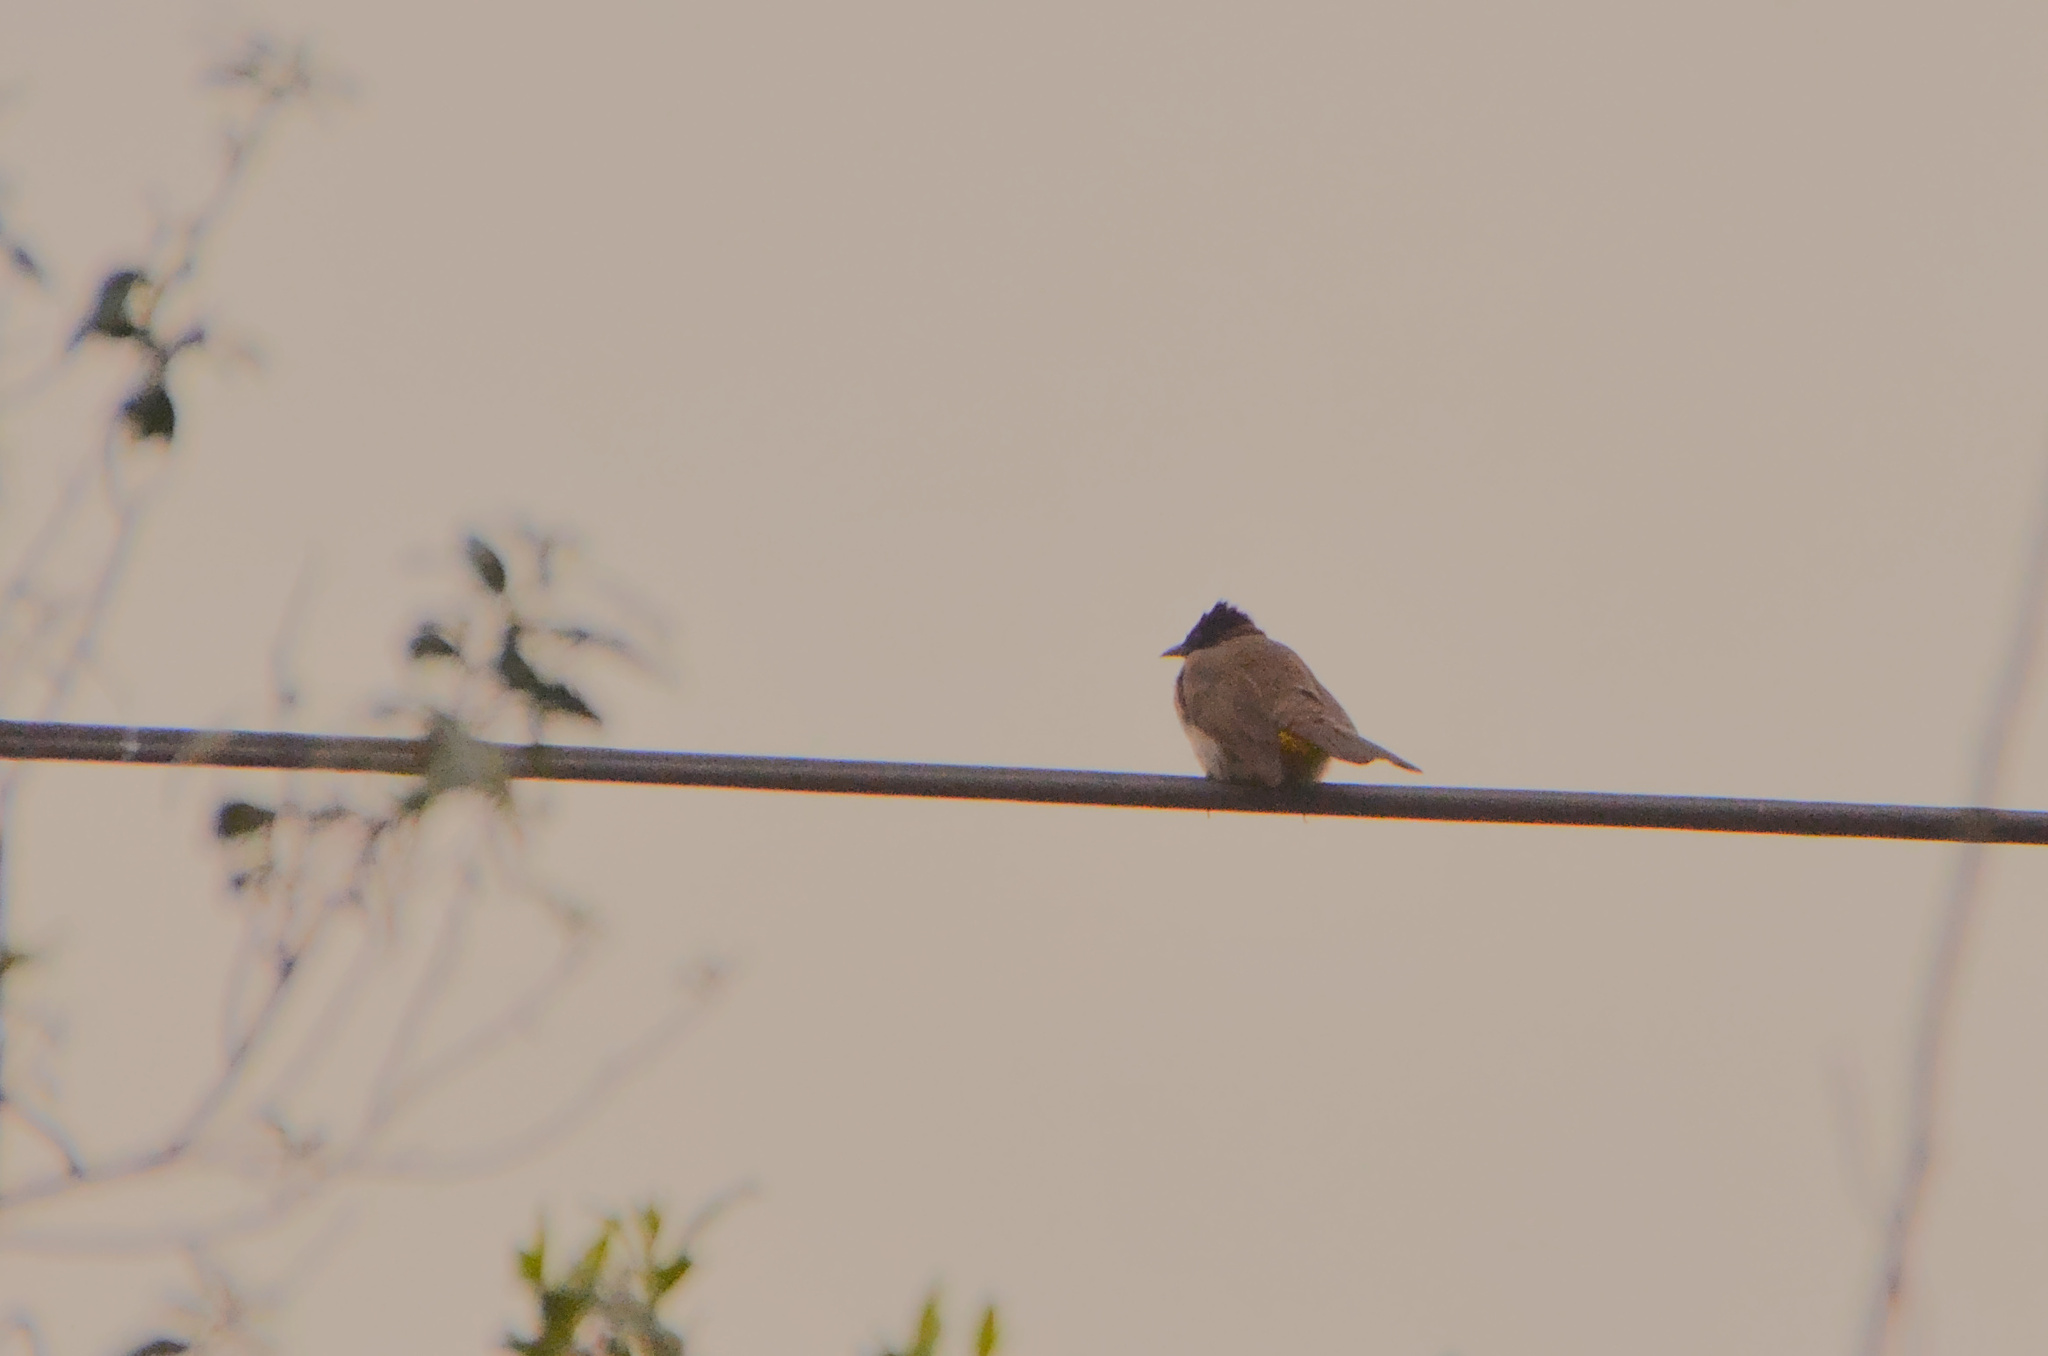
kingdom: Animalia
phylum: Chordata
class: Aves
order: Passeriformes
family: Pycnonotidae
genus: Pycnonotus
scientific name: Pycnonotus barbatus
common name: Common bulbul
